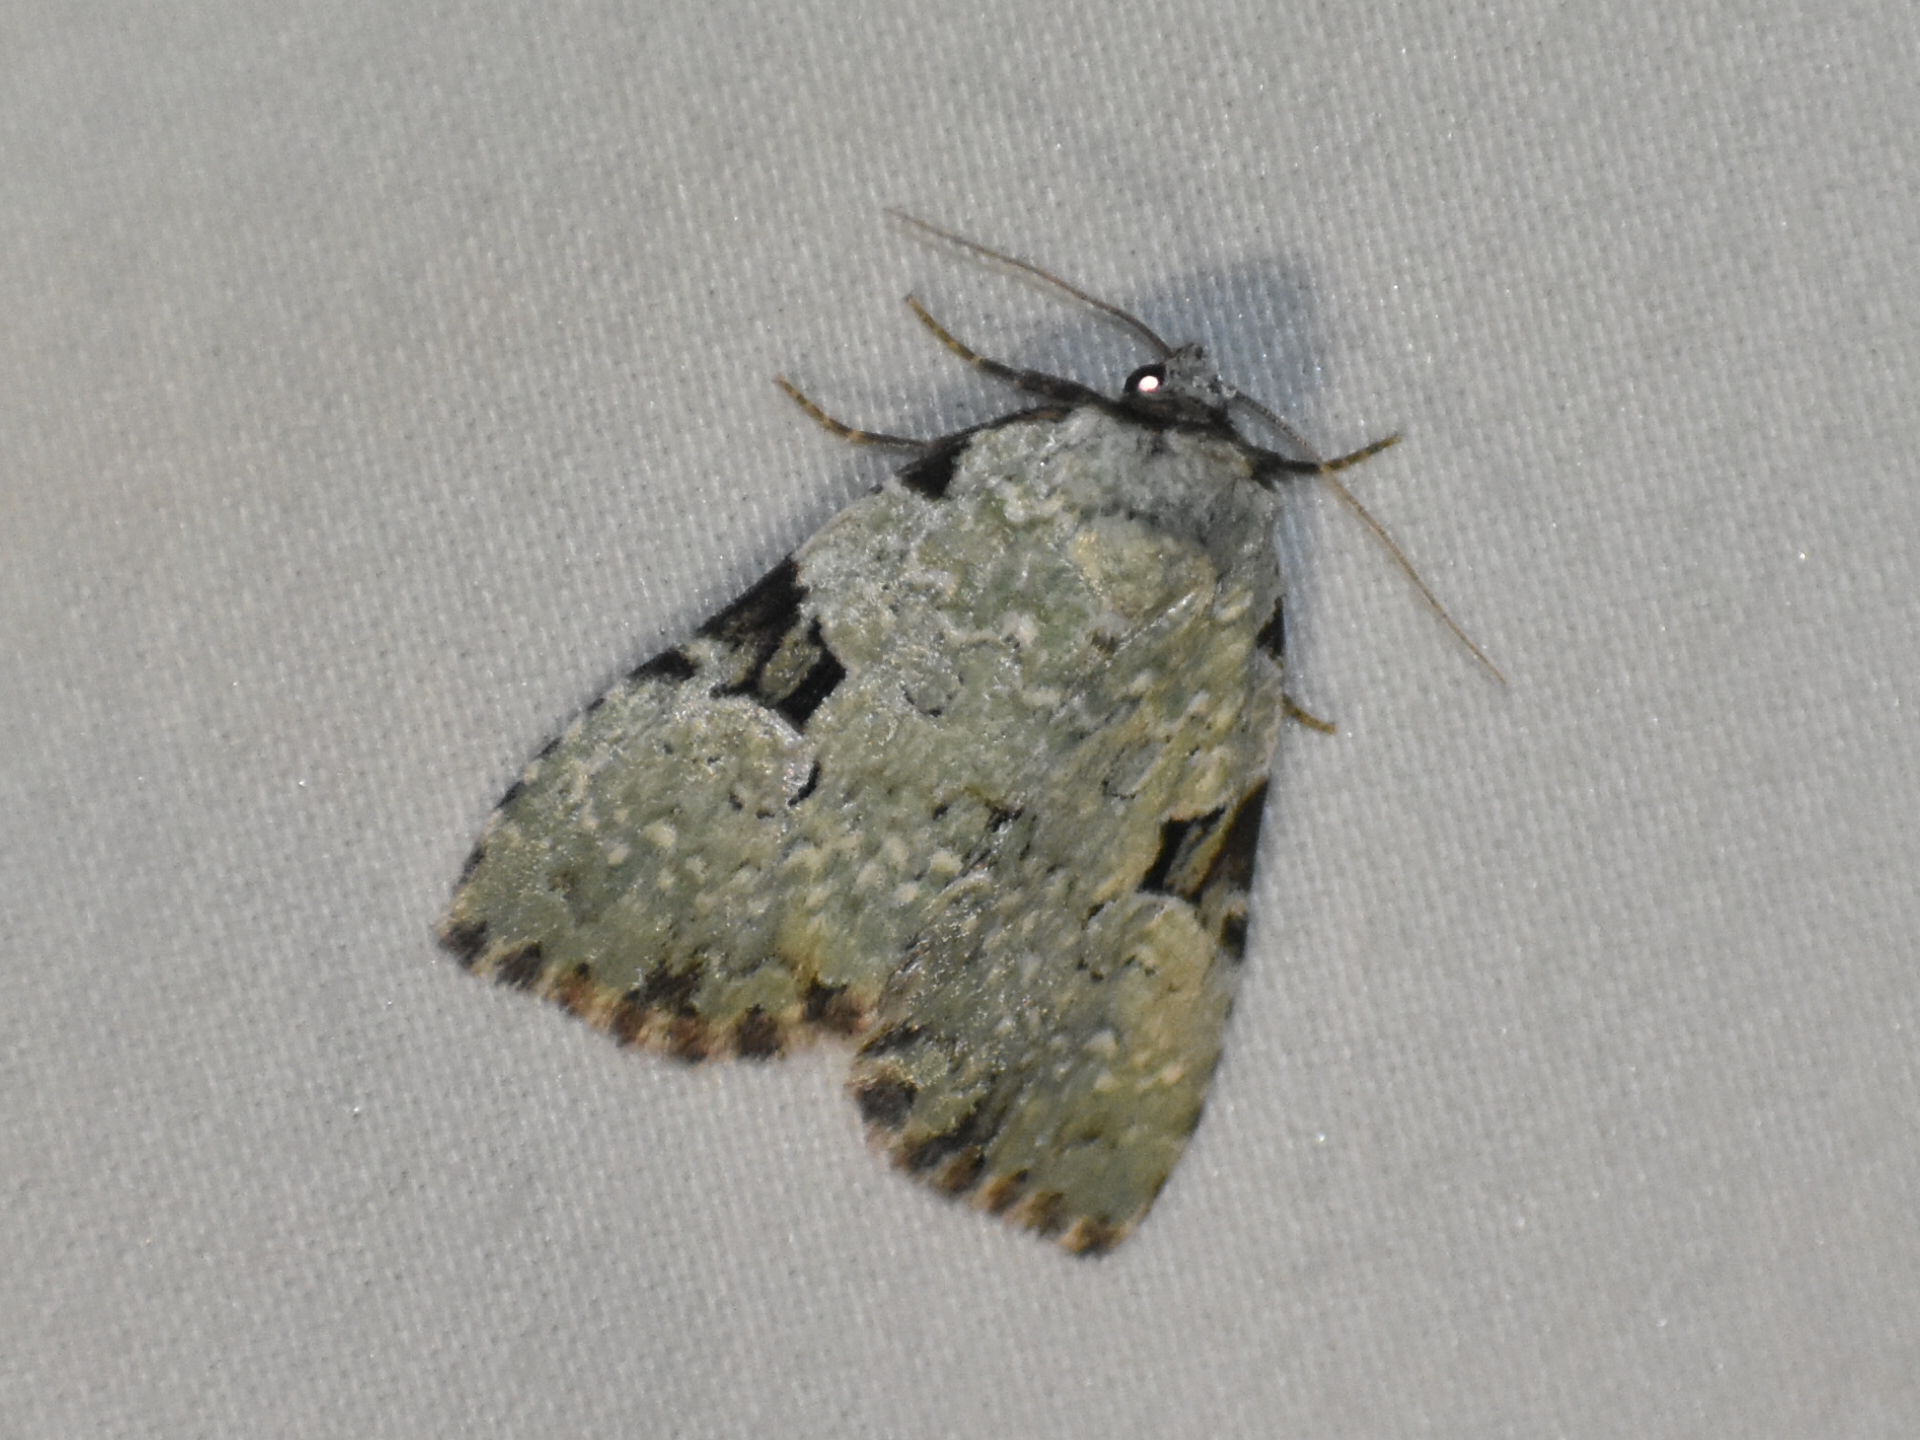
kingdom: Animalia
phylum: Arthropoda
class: Insecta
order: Lepidoptera
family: Noctuidae
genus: Leuconycta
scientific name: Leuconycta diphteroides
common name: Green leuconycta moth
